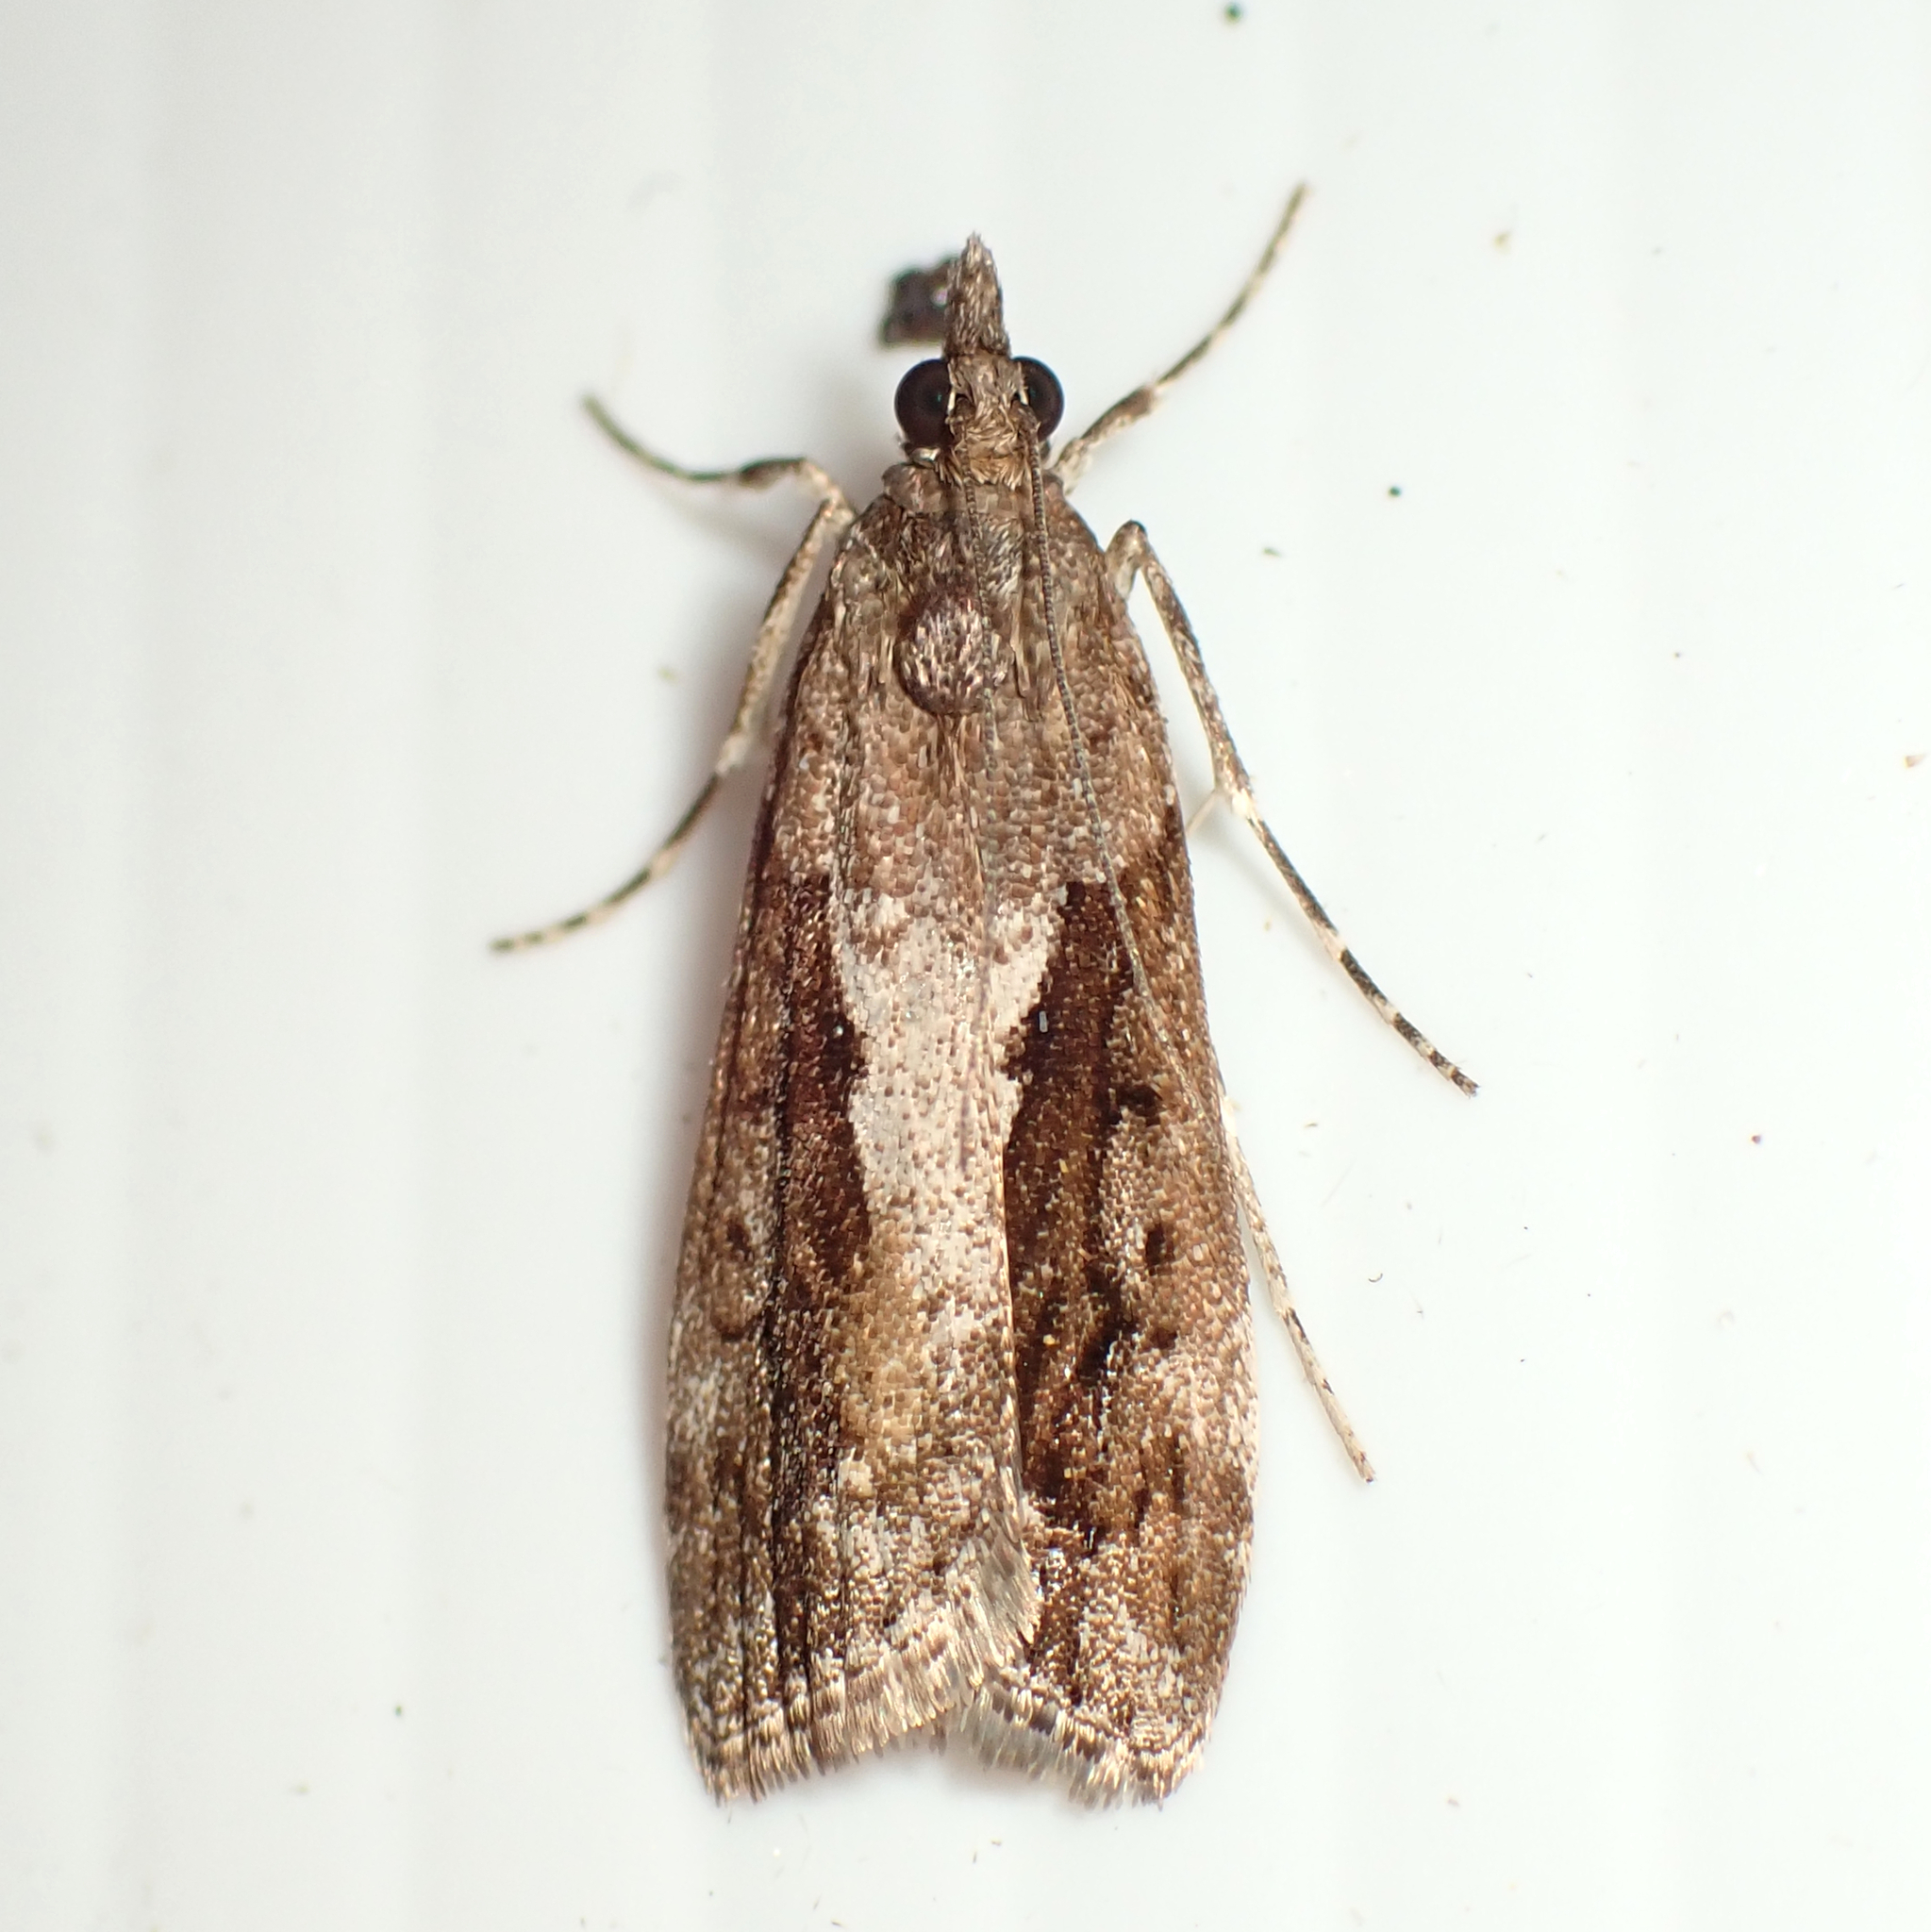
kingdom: Animalia
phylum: Arthropoda
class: Insecta
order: Lepidoptera
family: Crambidae
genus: Eudonia
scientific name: Eudonia submarginalis
